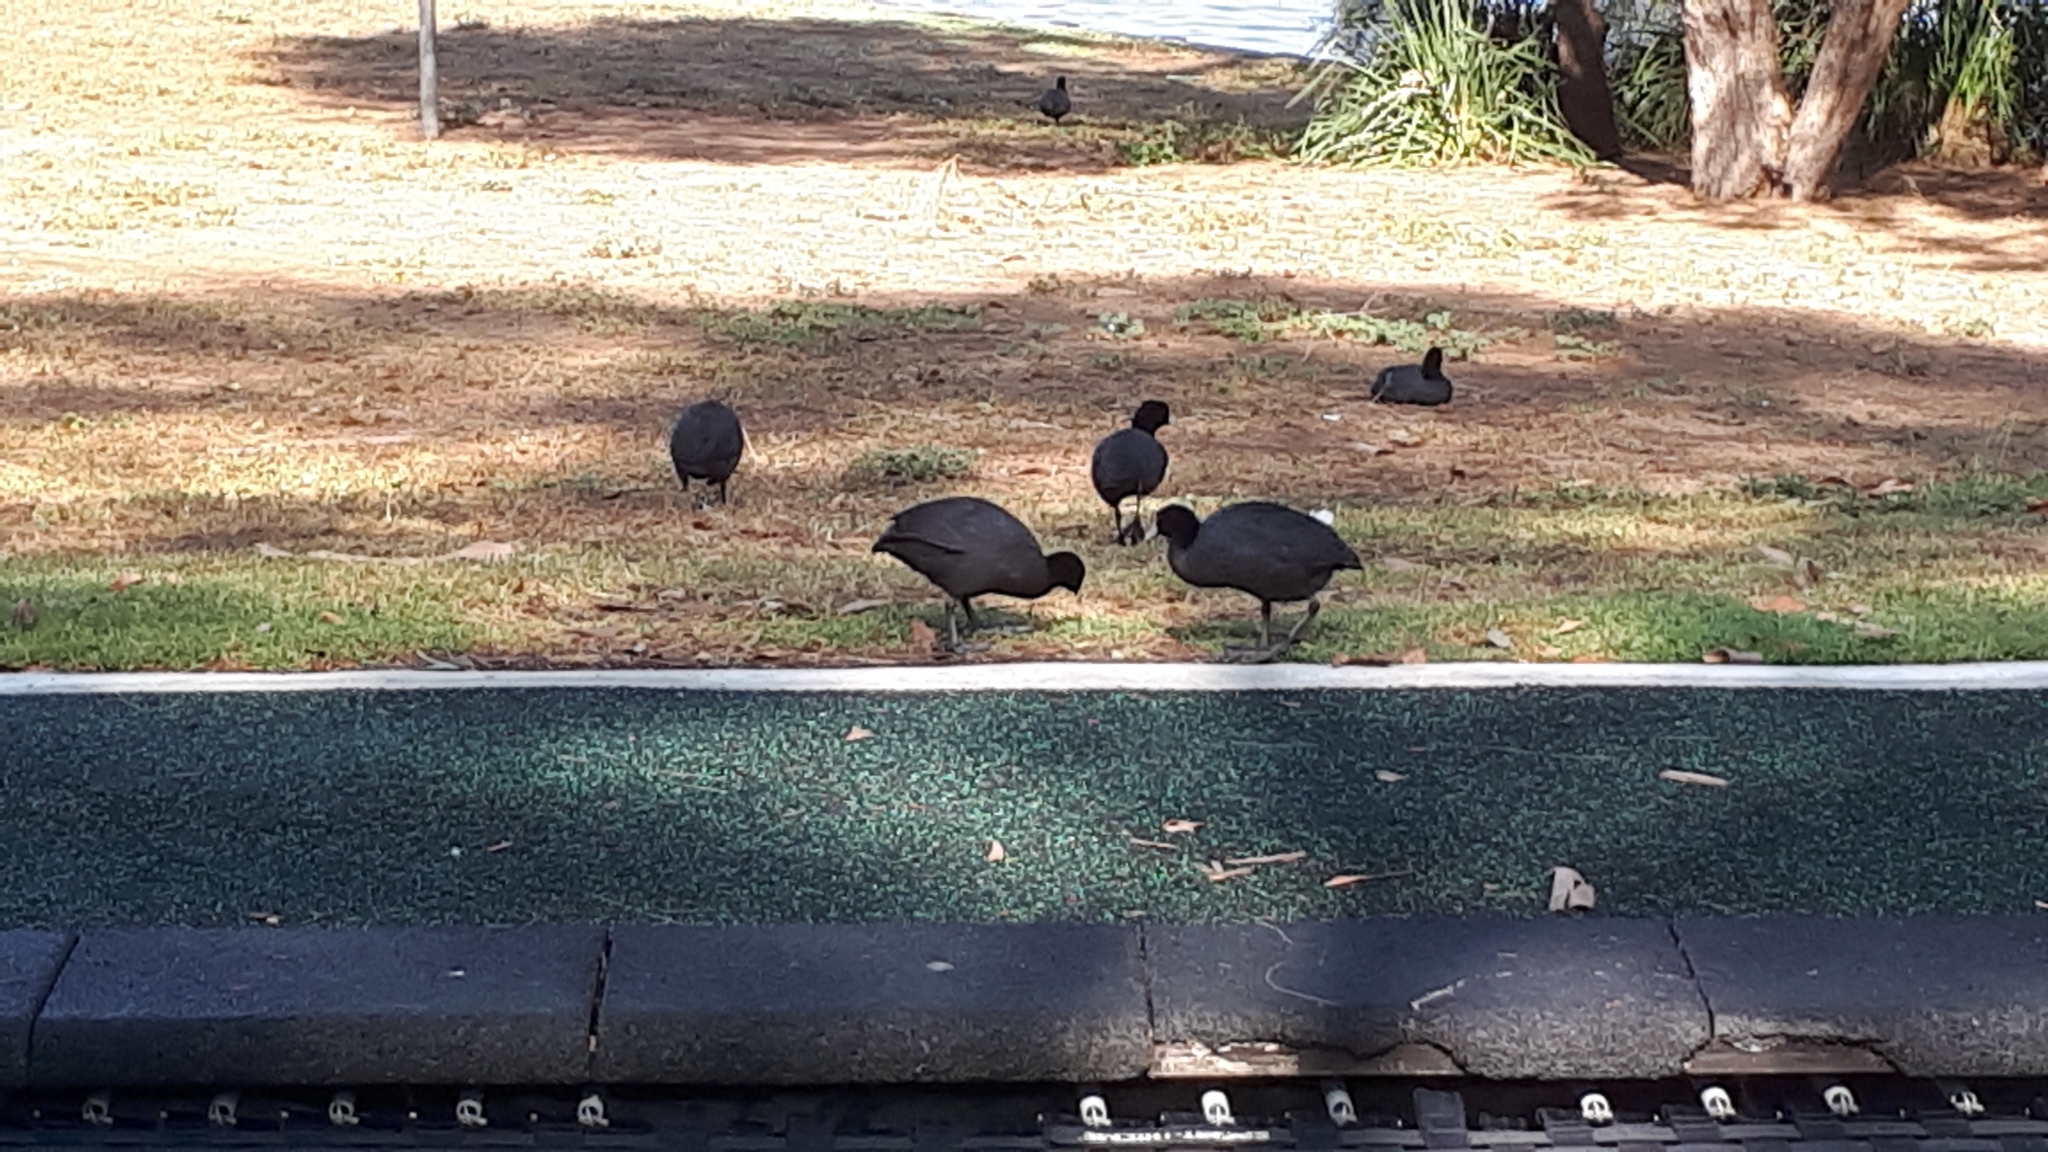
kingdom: Animalia
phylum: Chordata
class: Aves
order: Gruiformes
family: Rallidae
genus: Fulica
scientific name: Fulica atra
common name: Eurasian coot
